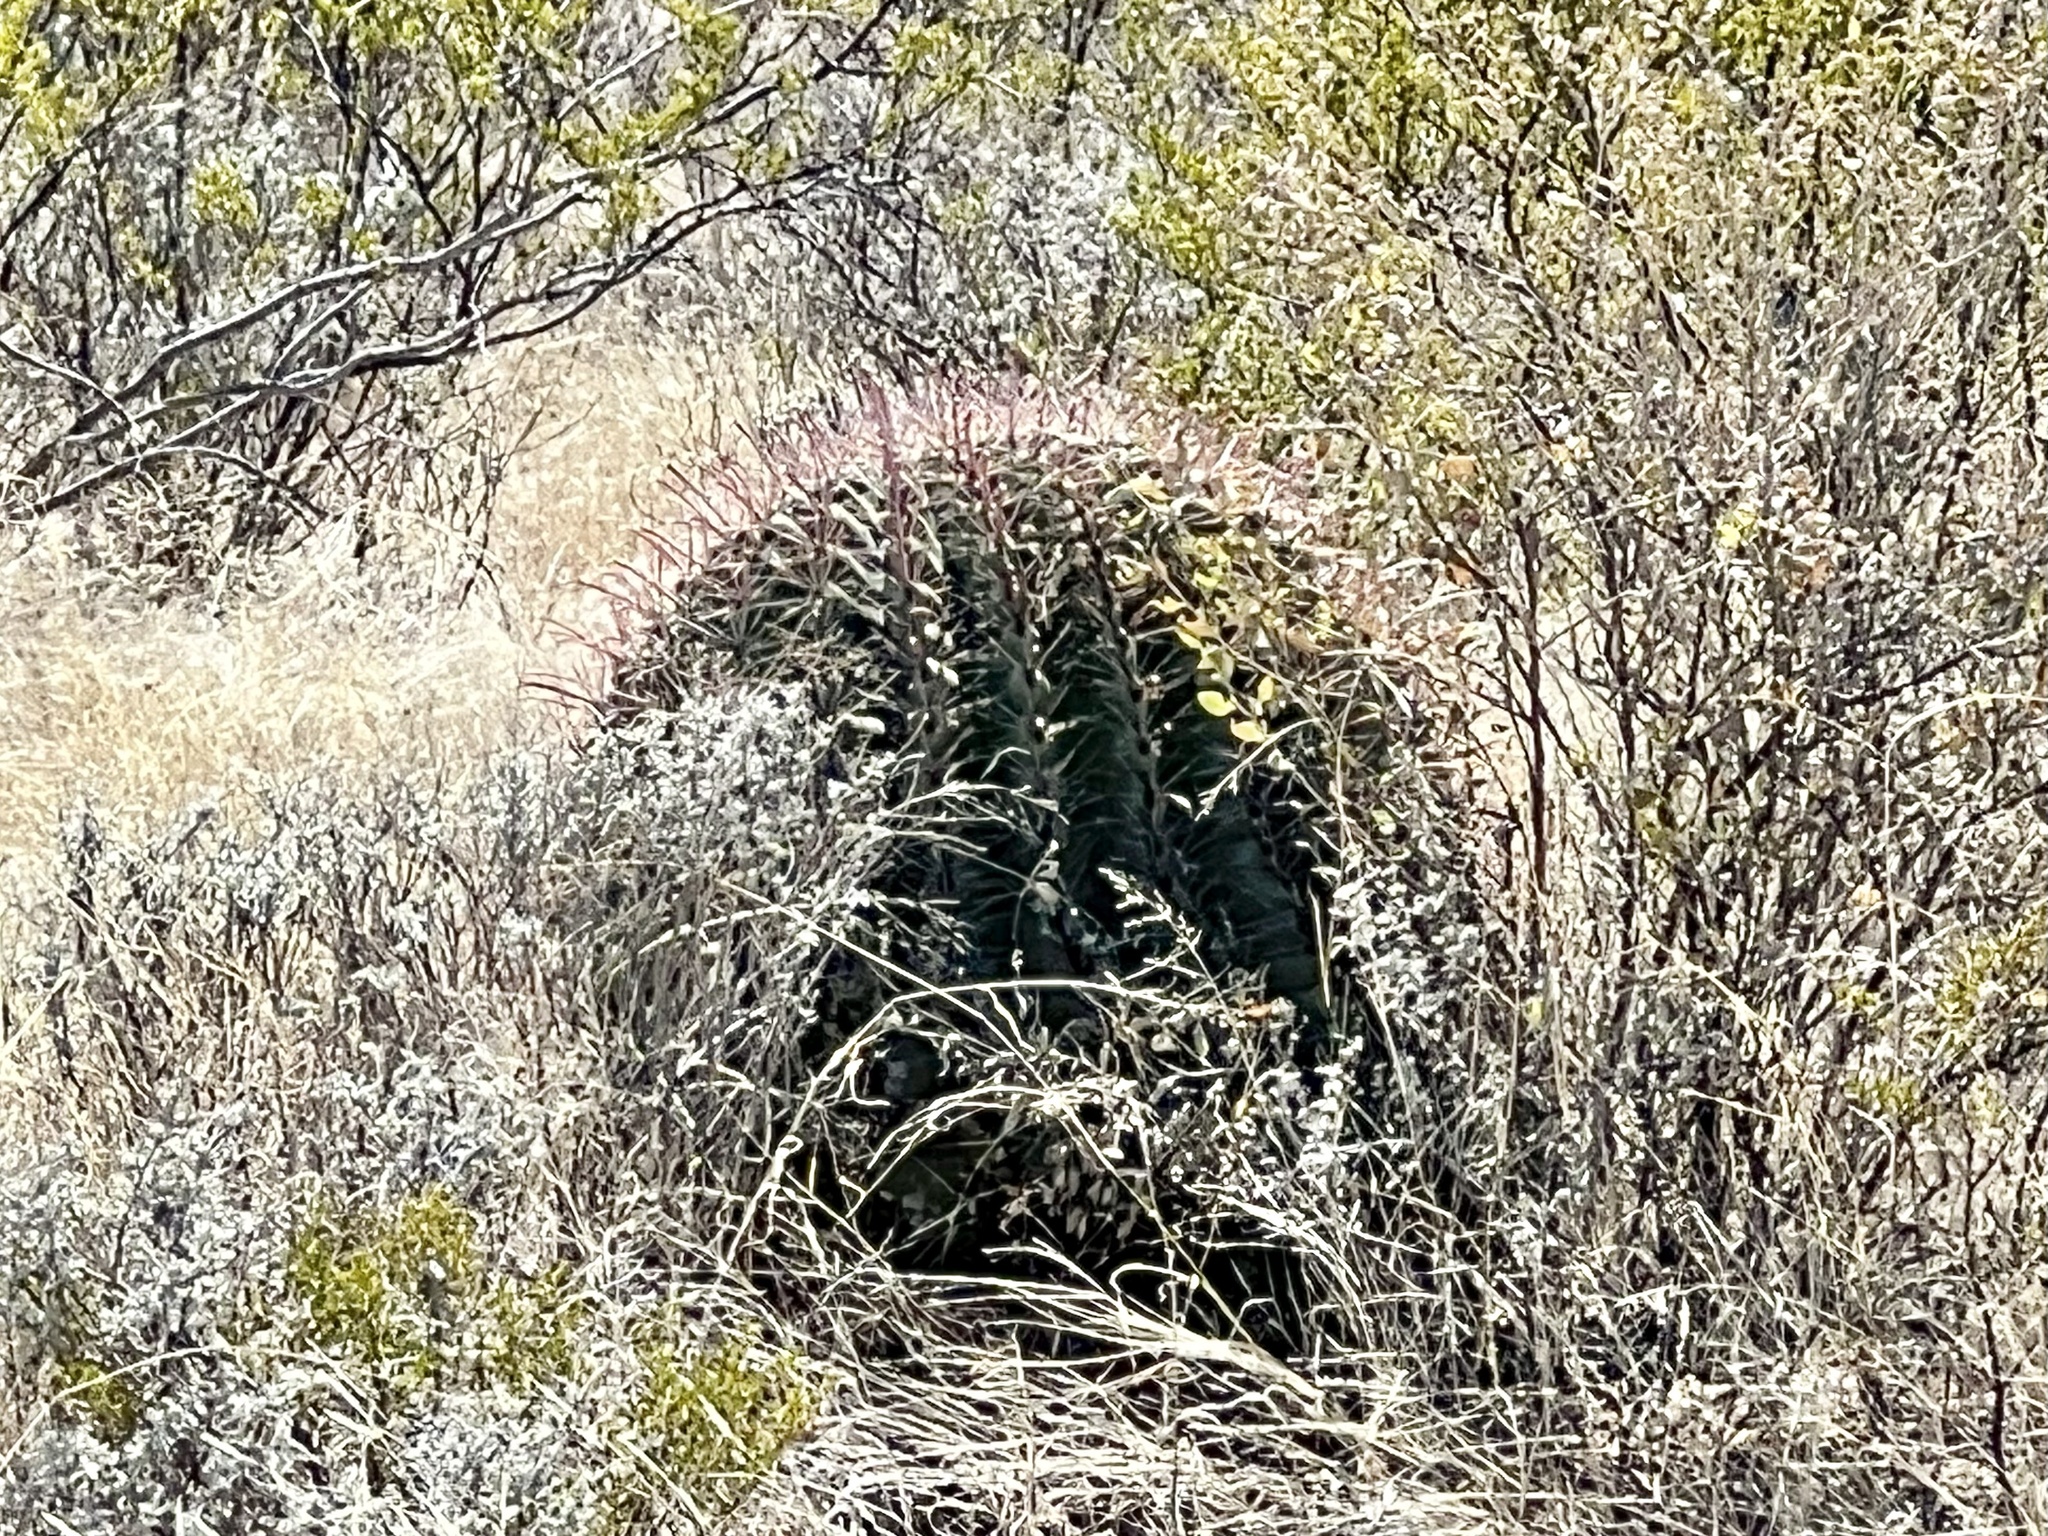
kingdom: Plantae
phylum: Tracheophyta
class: Magnoliopsida
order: Caryophyllales
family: Cactaceae
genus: Ferocactus
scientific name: Ferocactus wislizeni
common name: Candy barrel cactus
